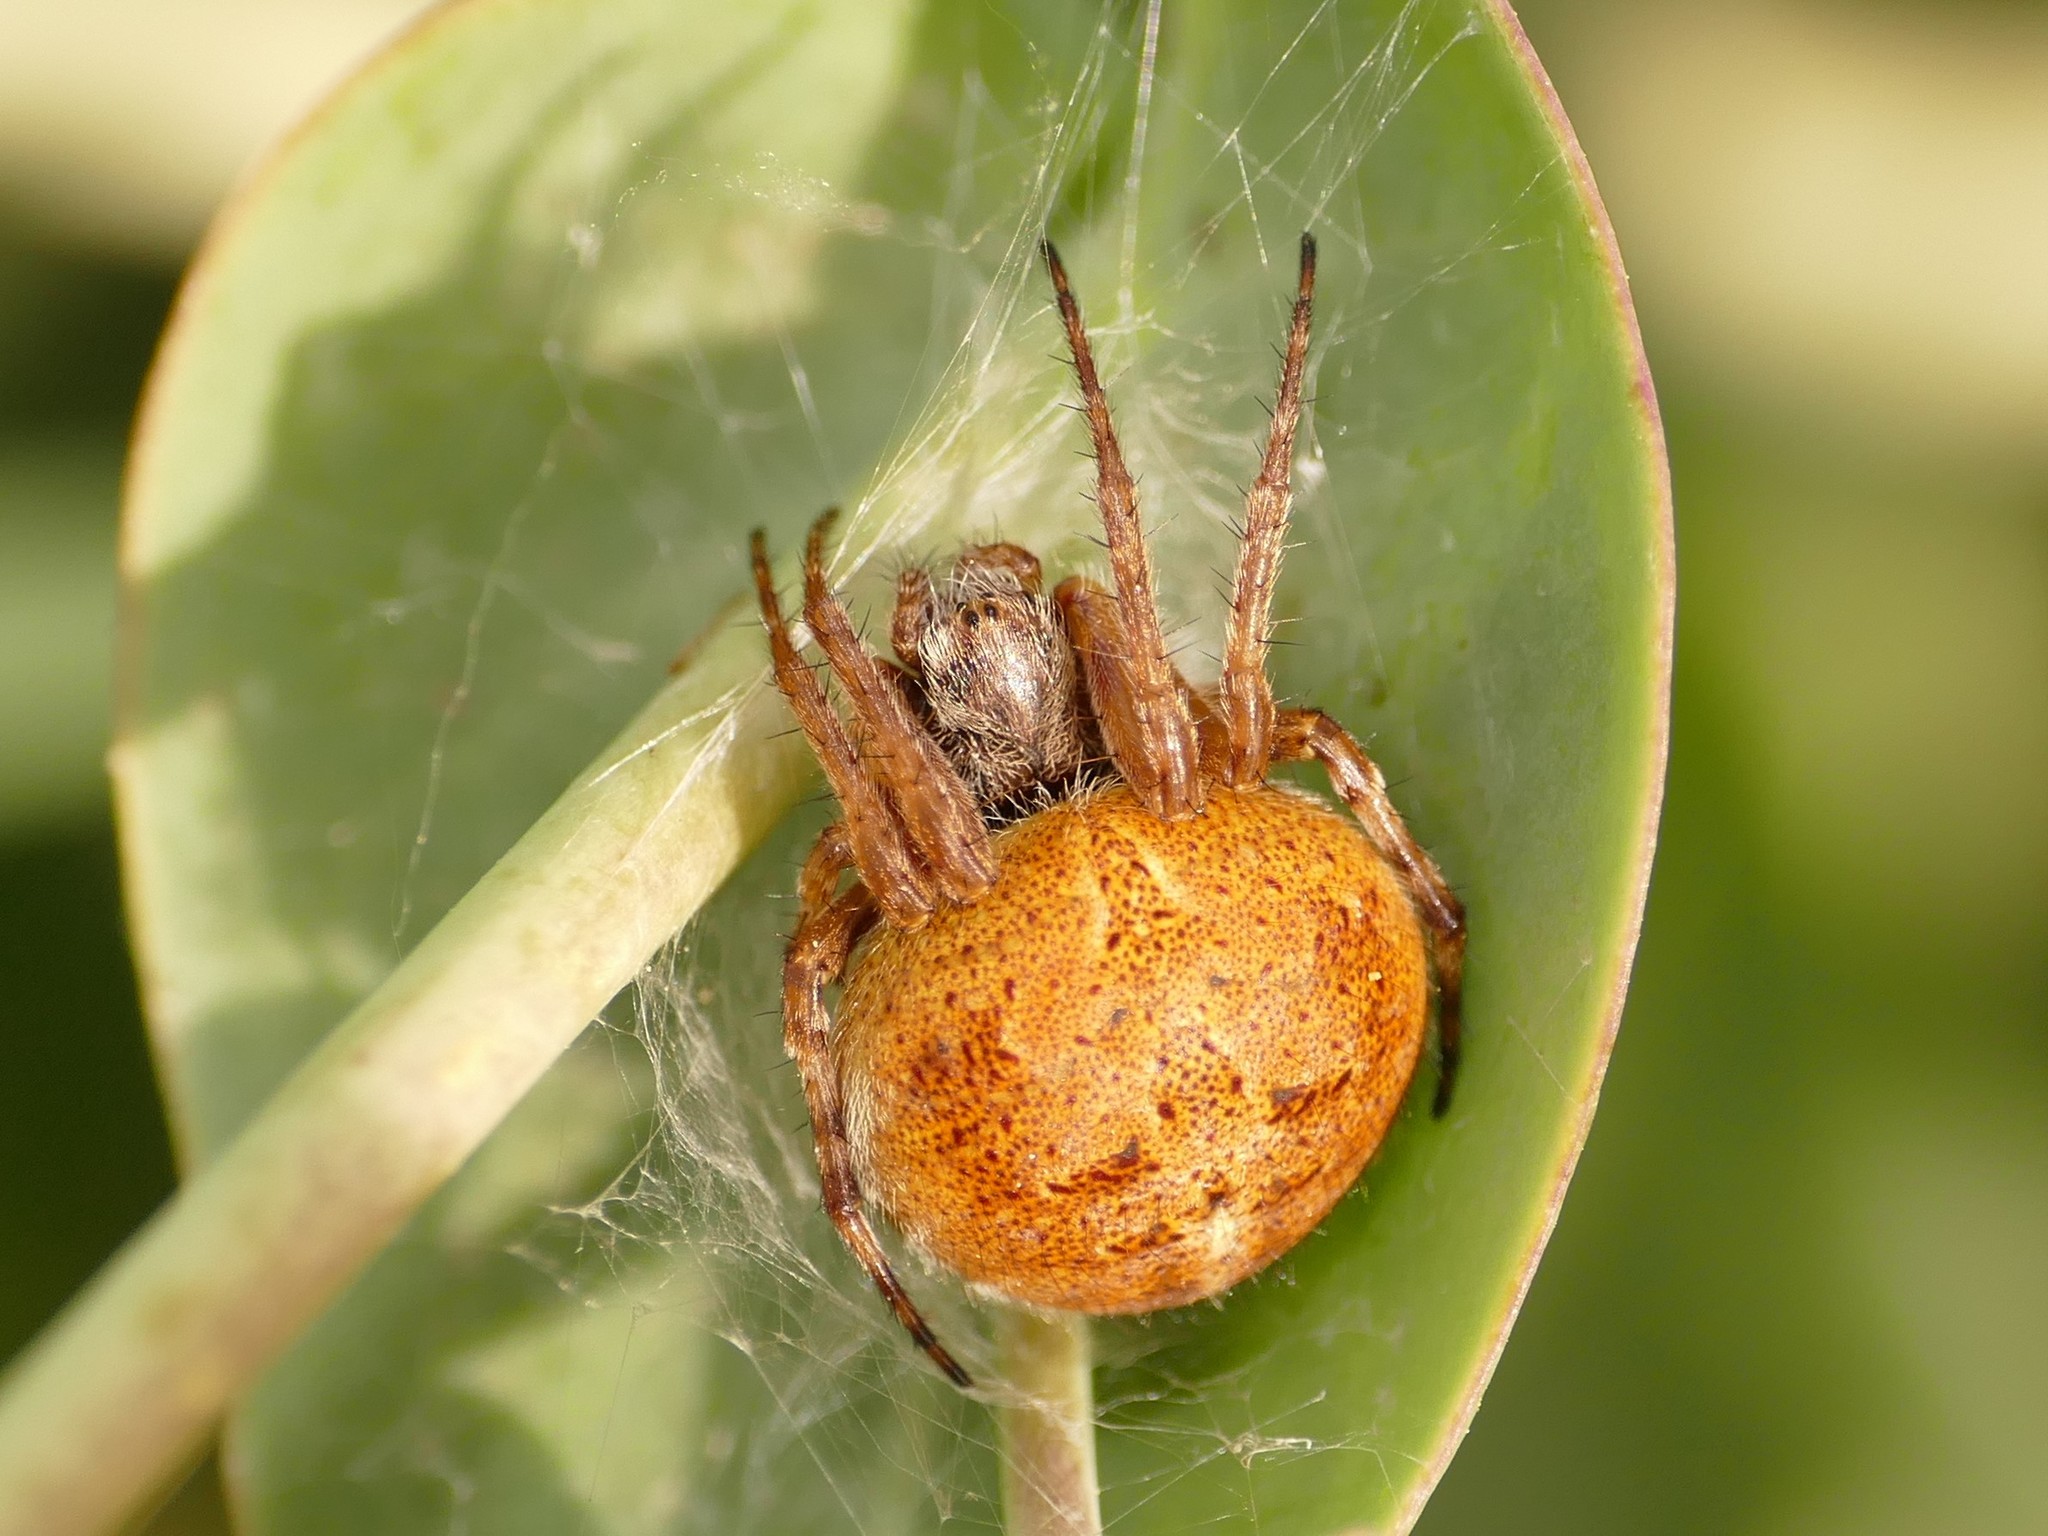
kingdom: Animalia
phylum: Arthropoda
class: Arachnida
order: Araneae
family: Araneidae
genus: Agalenatea
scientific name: Agalenatea redii
